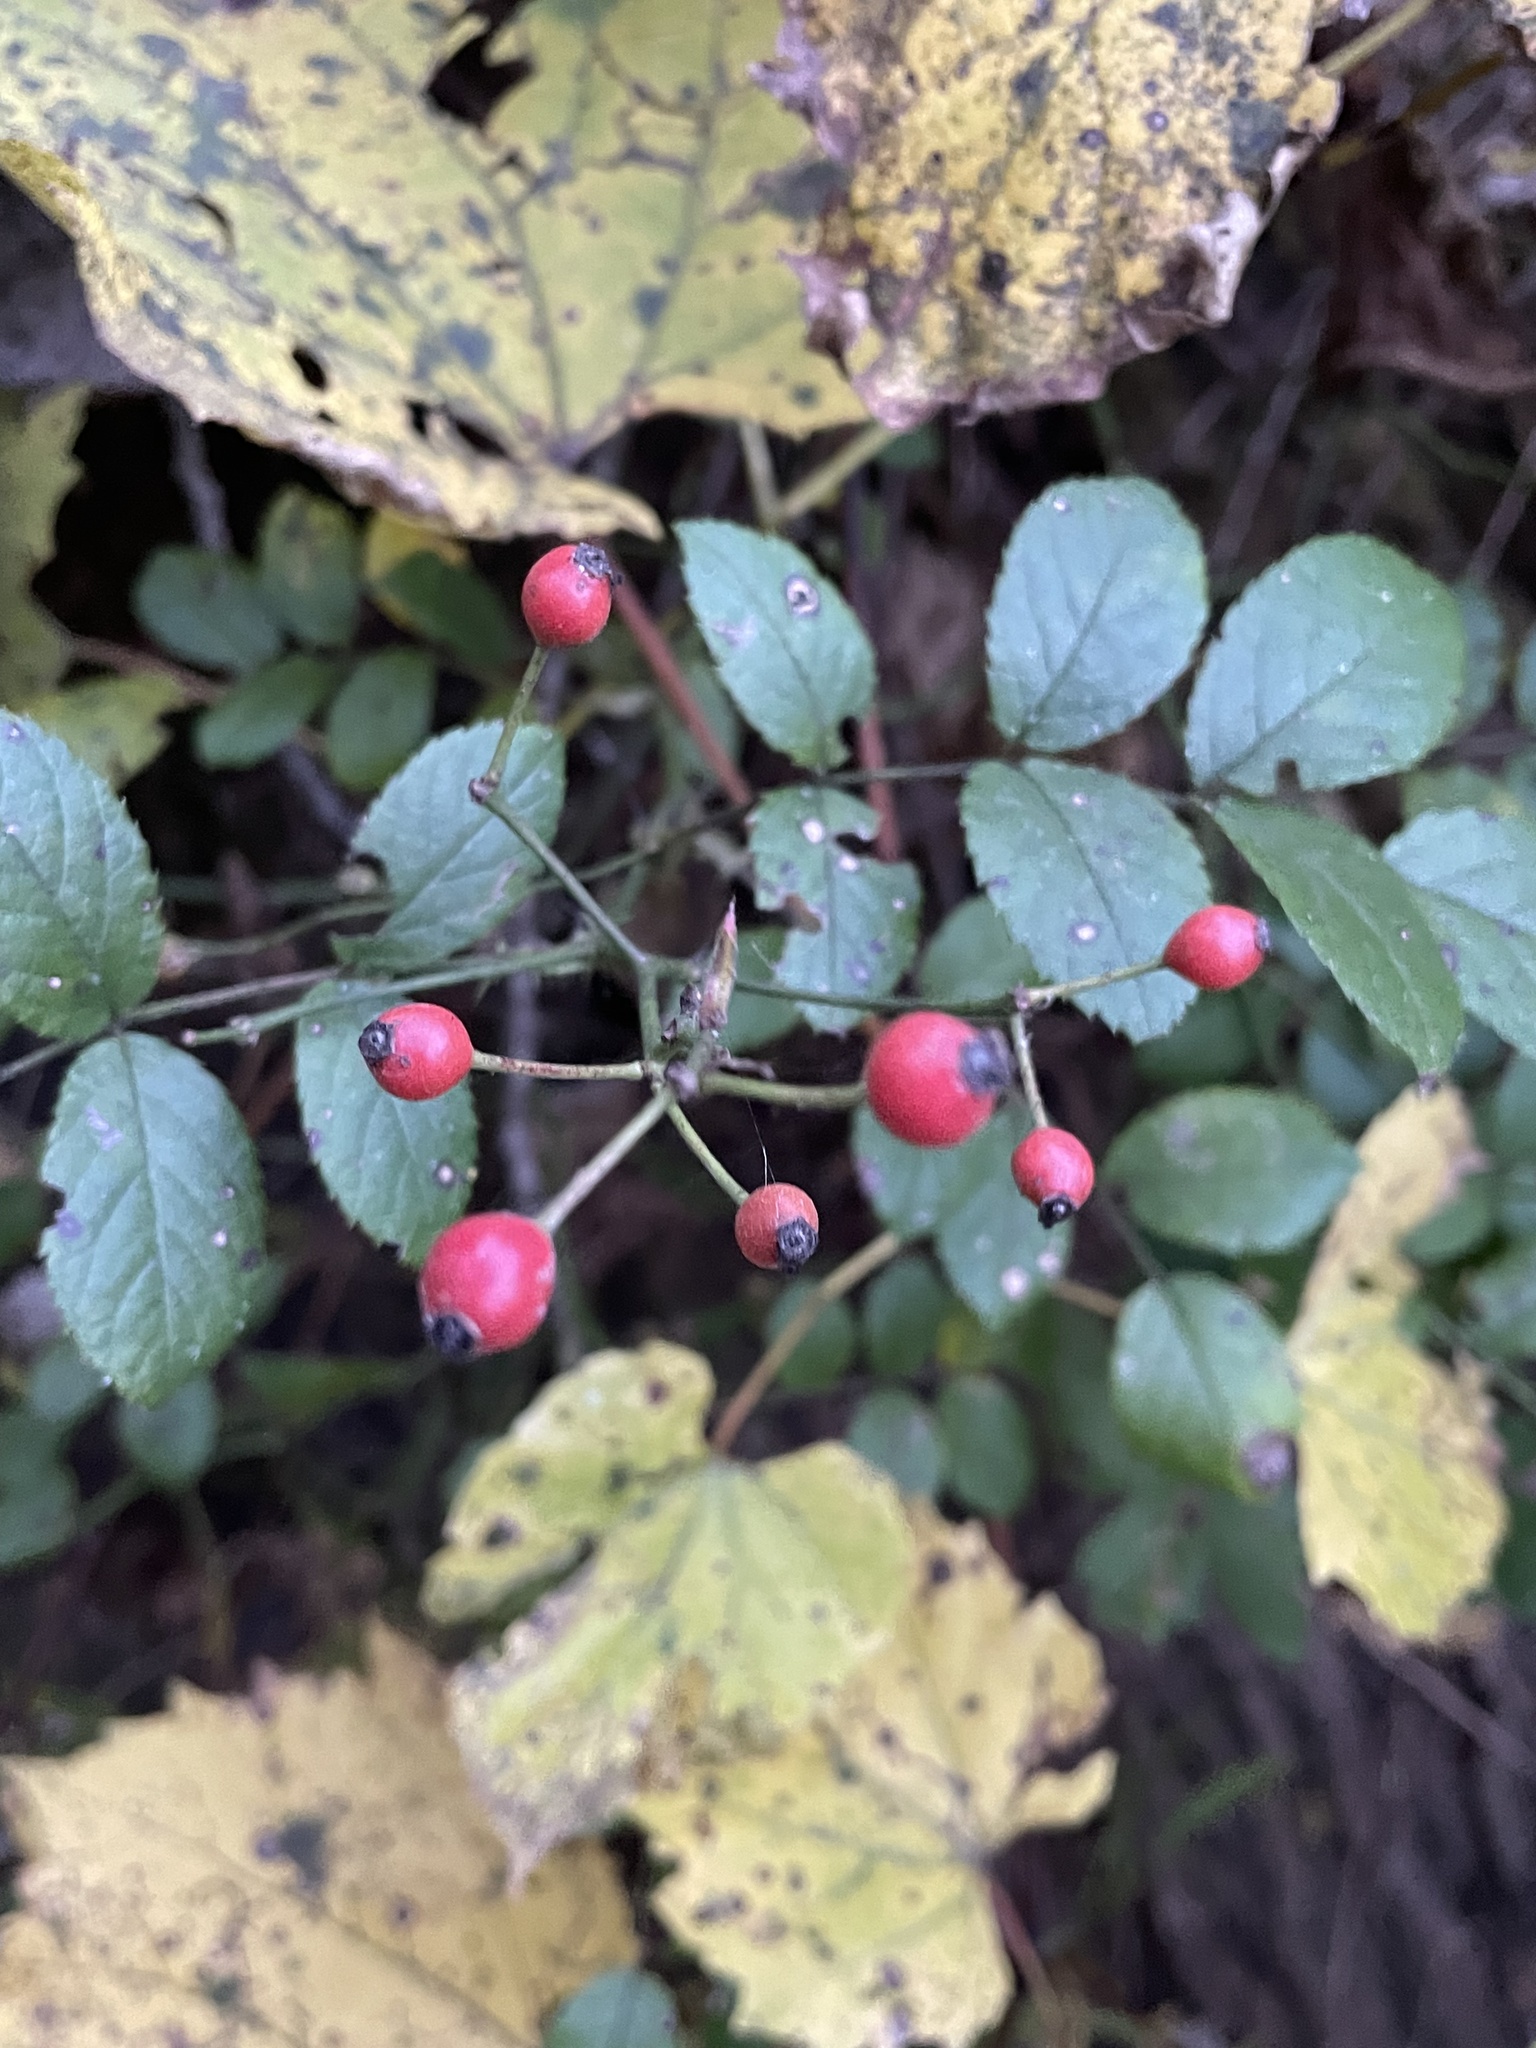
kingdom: Plantae
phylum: Tracheophyta
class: Magnoliopsida
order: Rosales
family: Rosaceae
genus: Rosa
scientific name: Rosa multiflora
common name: Multiflora rose
